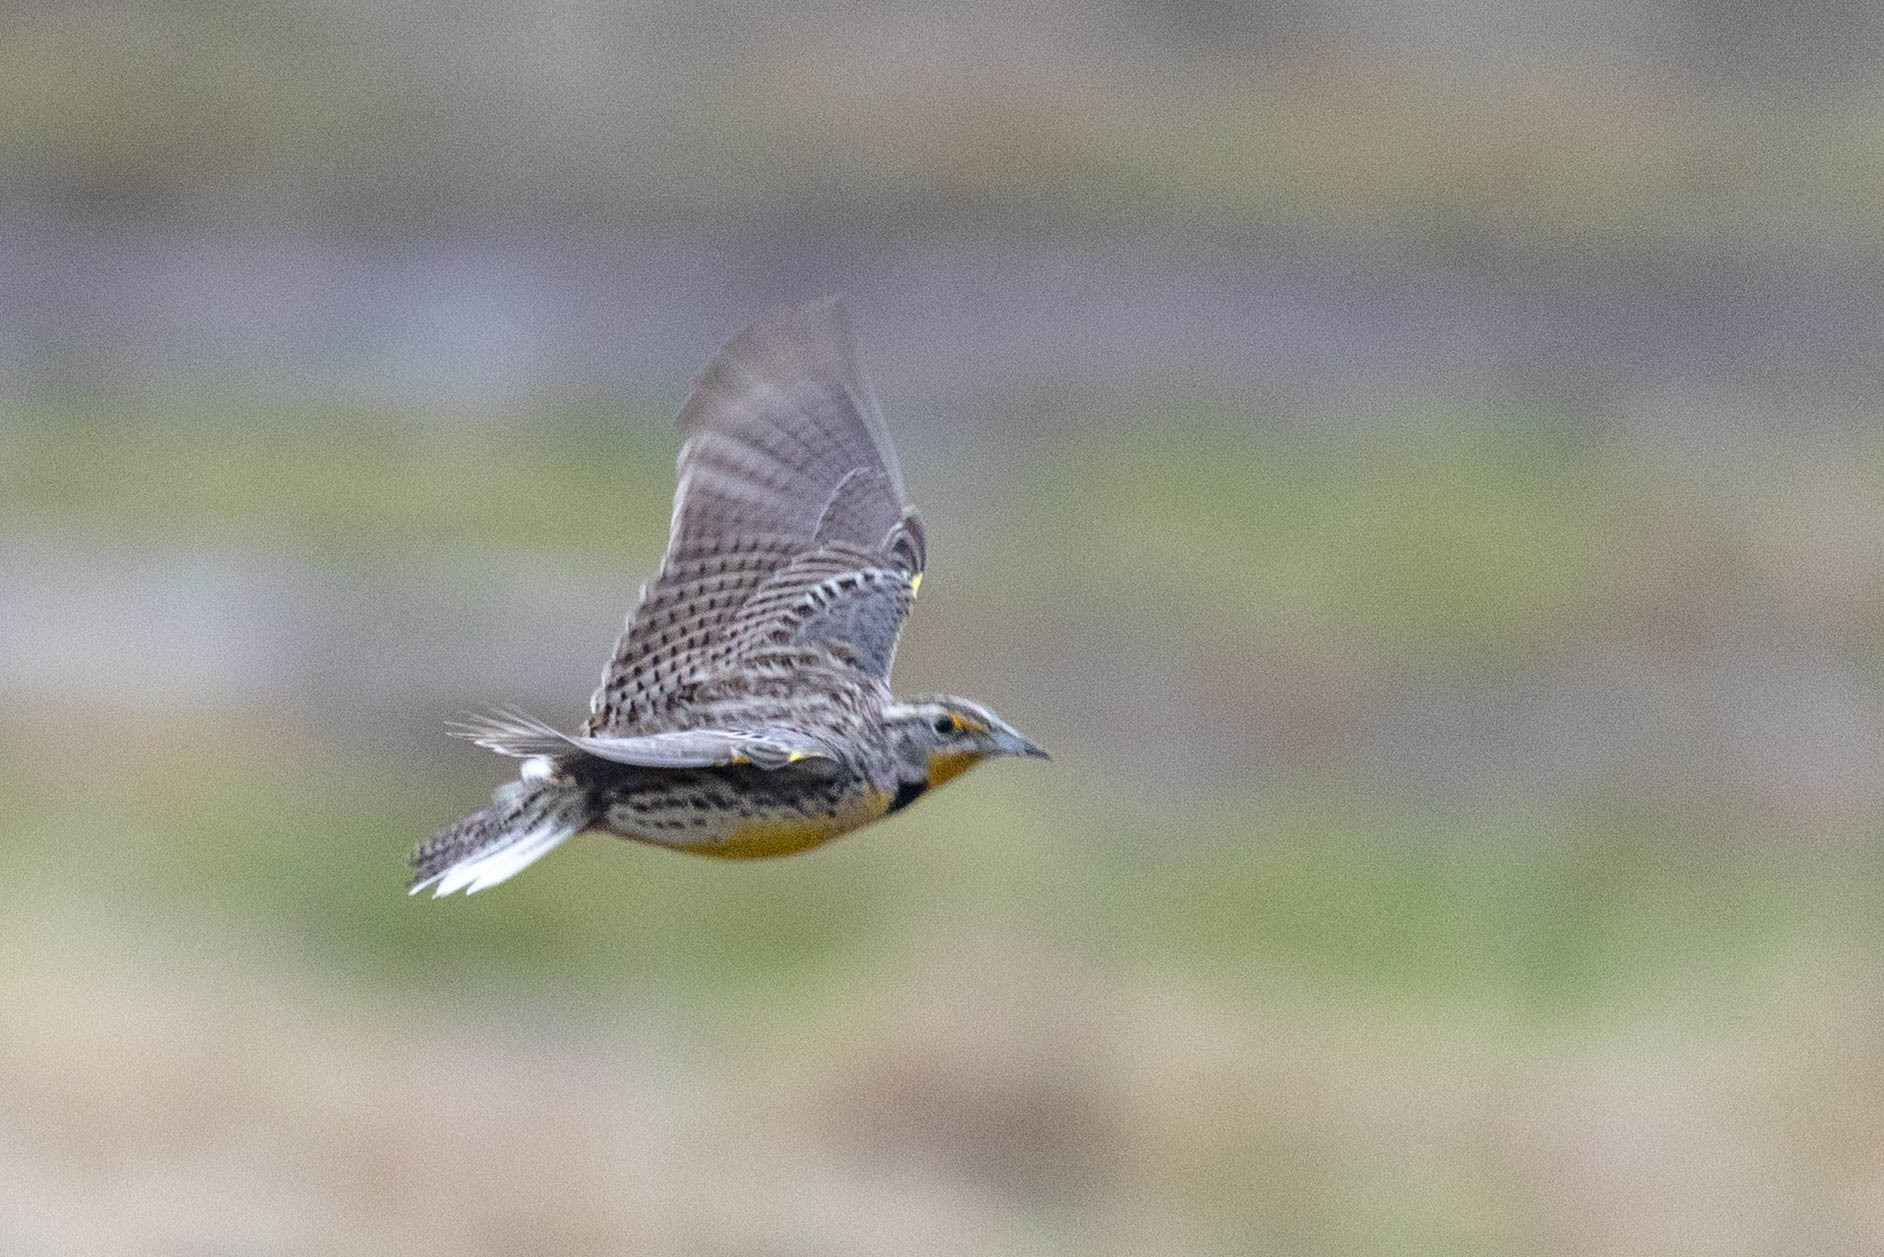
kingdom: Animalia
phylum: Chordata
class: Aves
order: Passeriformes
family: Icteridae
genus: Sturnella
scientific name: Sturnella neglecta
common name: Western meadowlark
